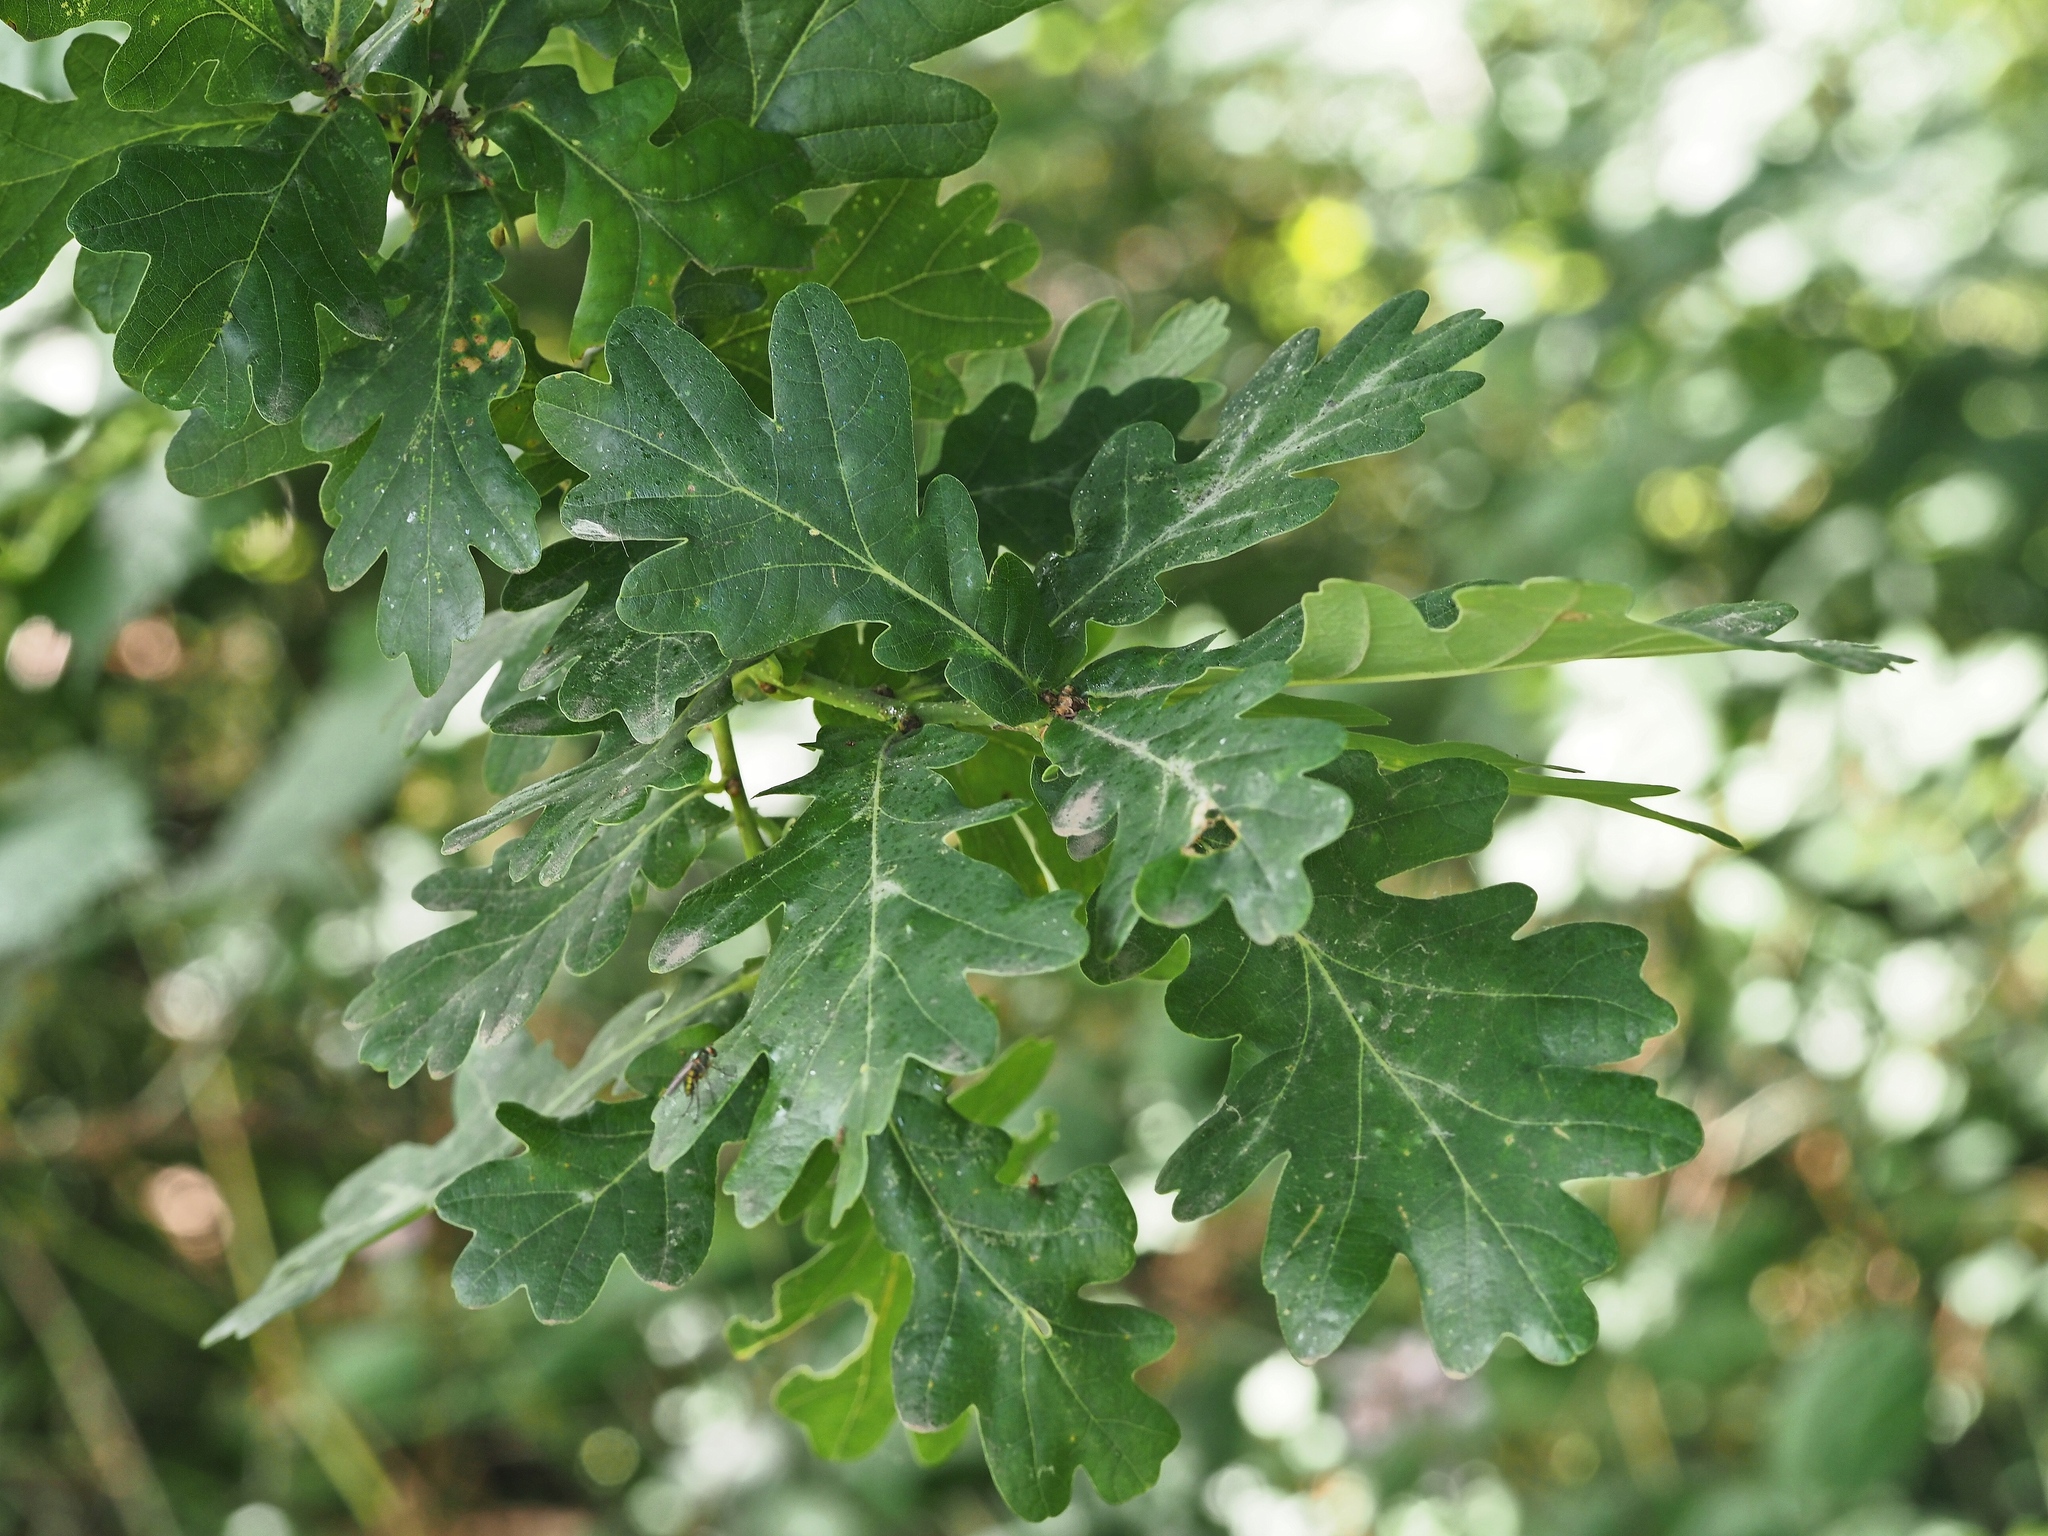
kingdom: Plantae
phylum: Tracheophyta
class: Magnoliopsida
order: Fagales
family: Fagaceae
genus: Quercus
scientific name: Quercus robur
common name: Pedunculate oak
